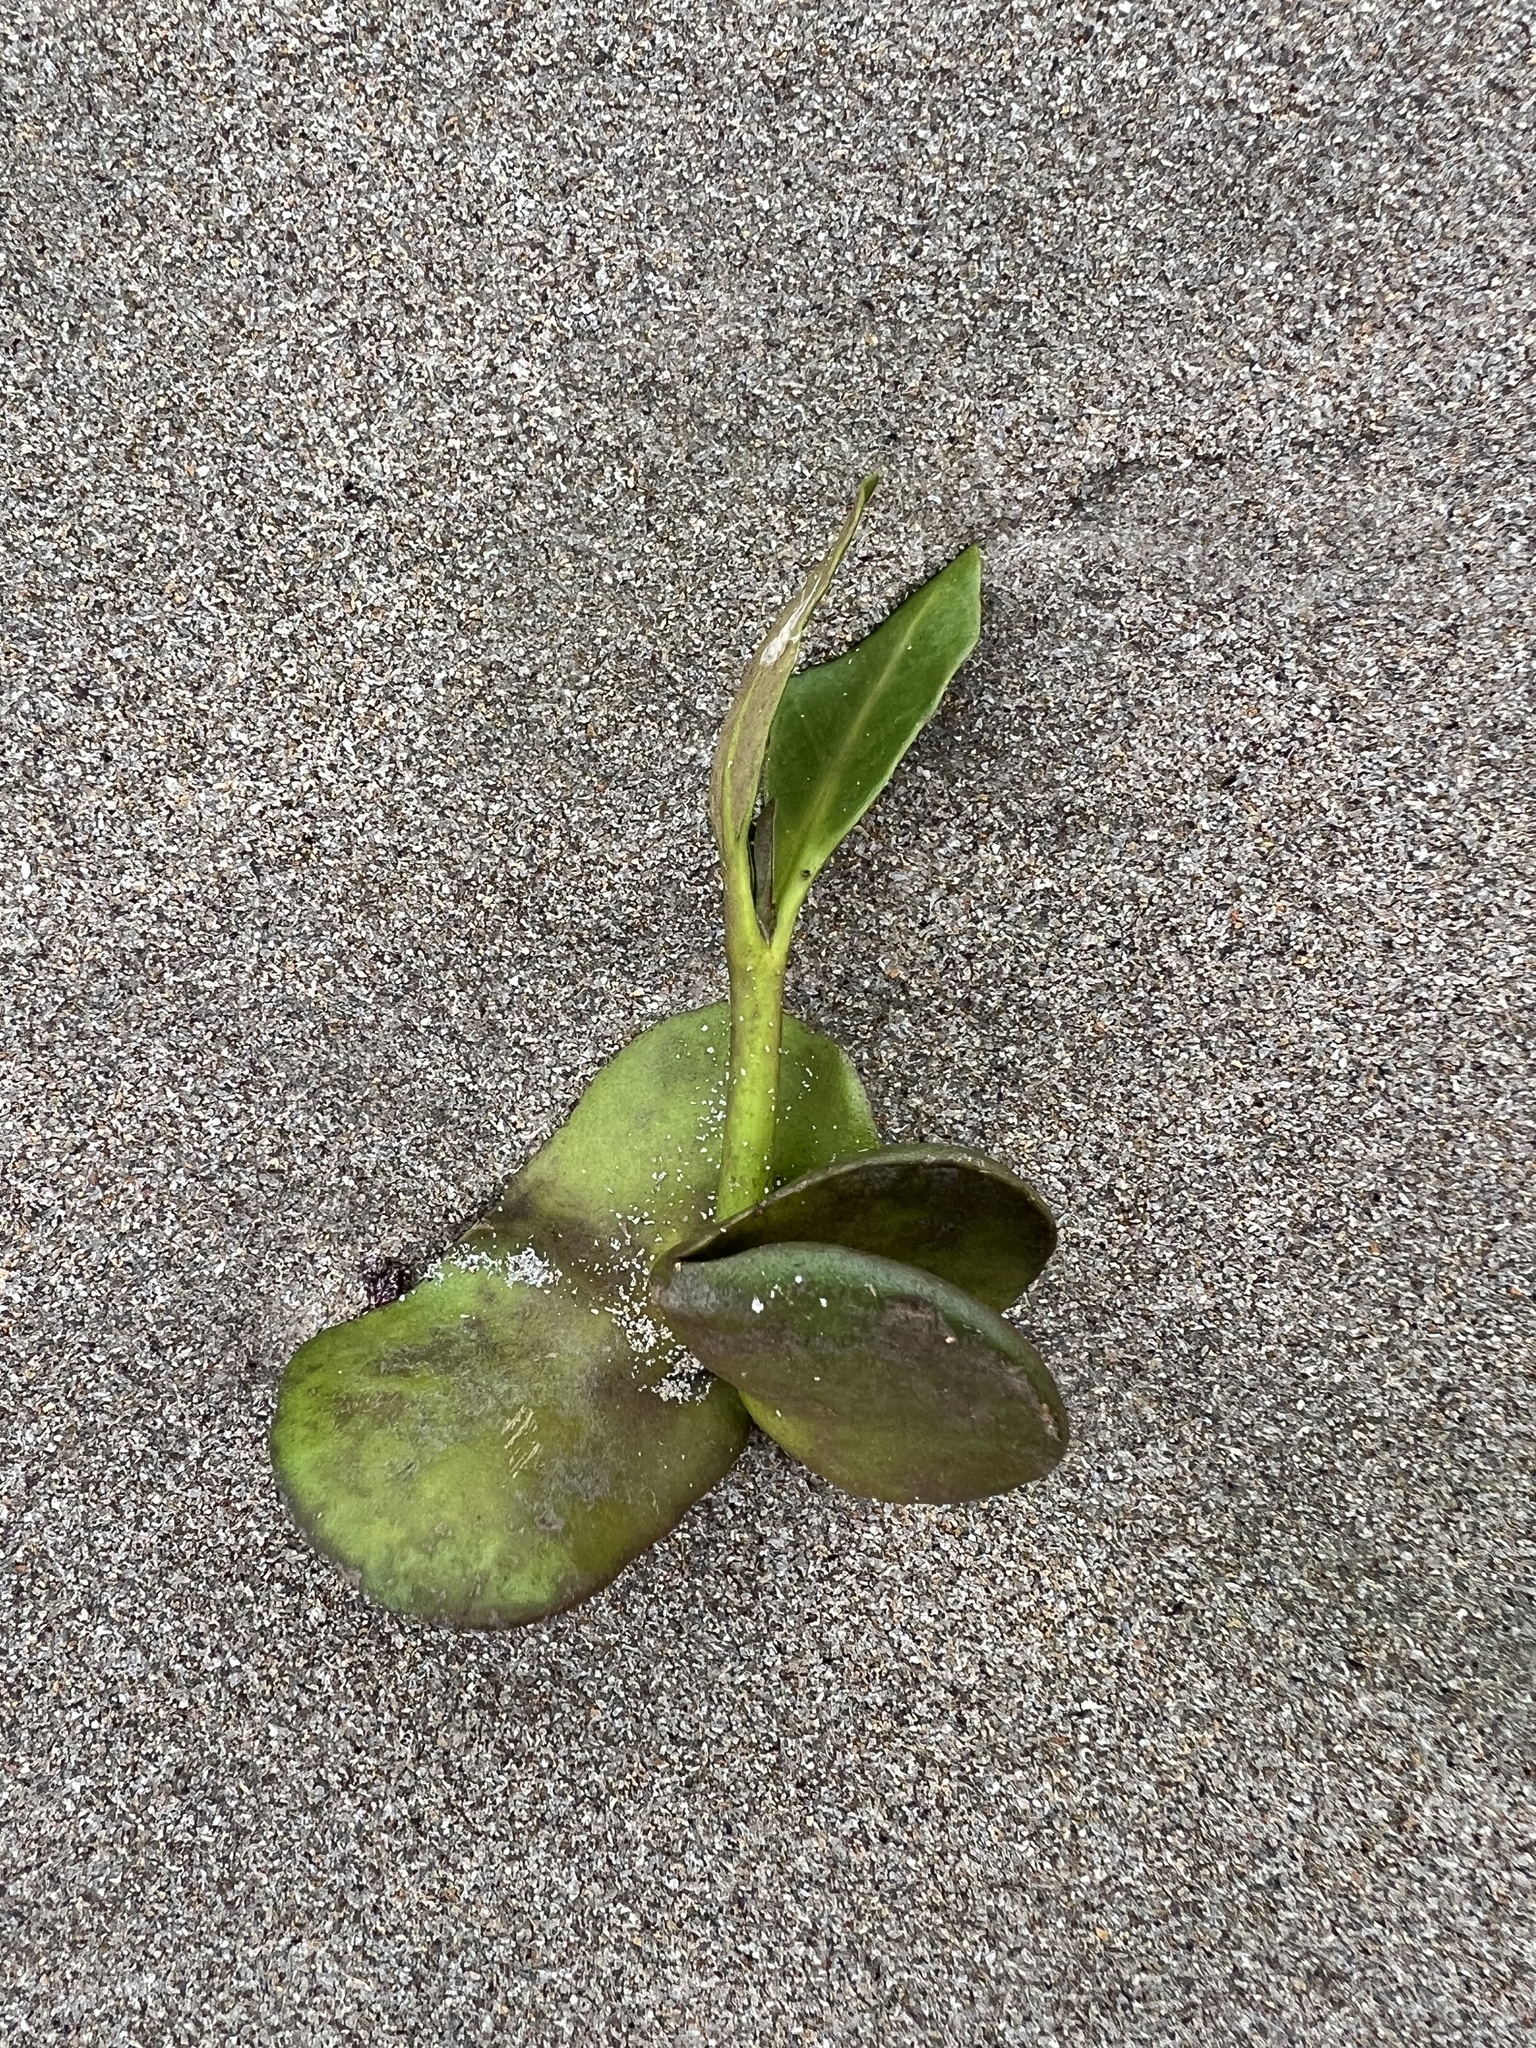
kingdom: Plantae
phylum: Tracheophyta
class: Magnoliopsida
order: Lamiales
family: Acanthaceae
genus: Avicennia
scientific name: Avicennia marina
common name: Gray mangrove
